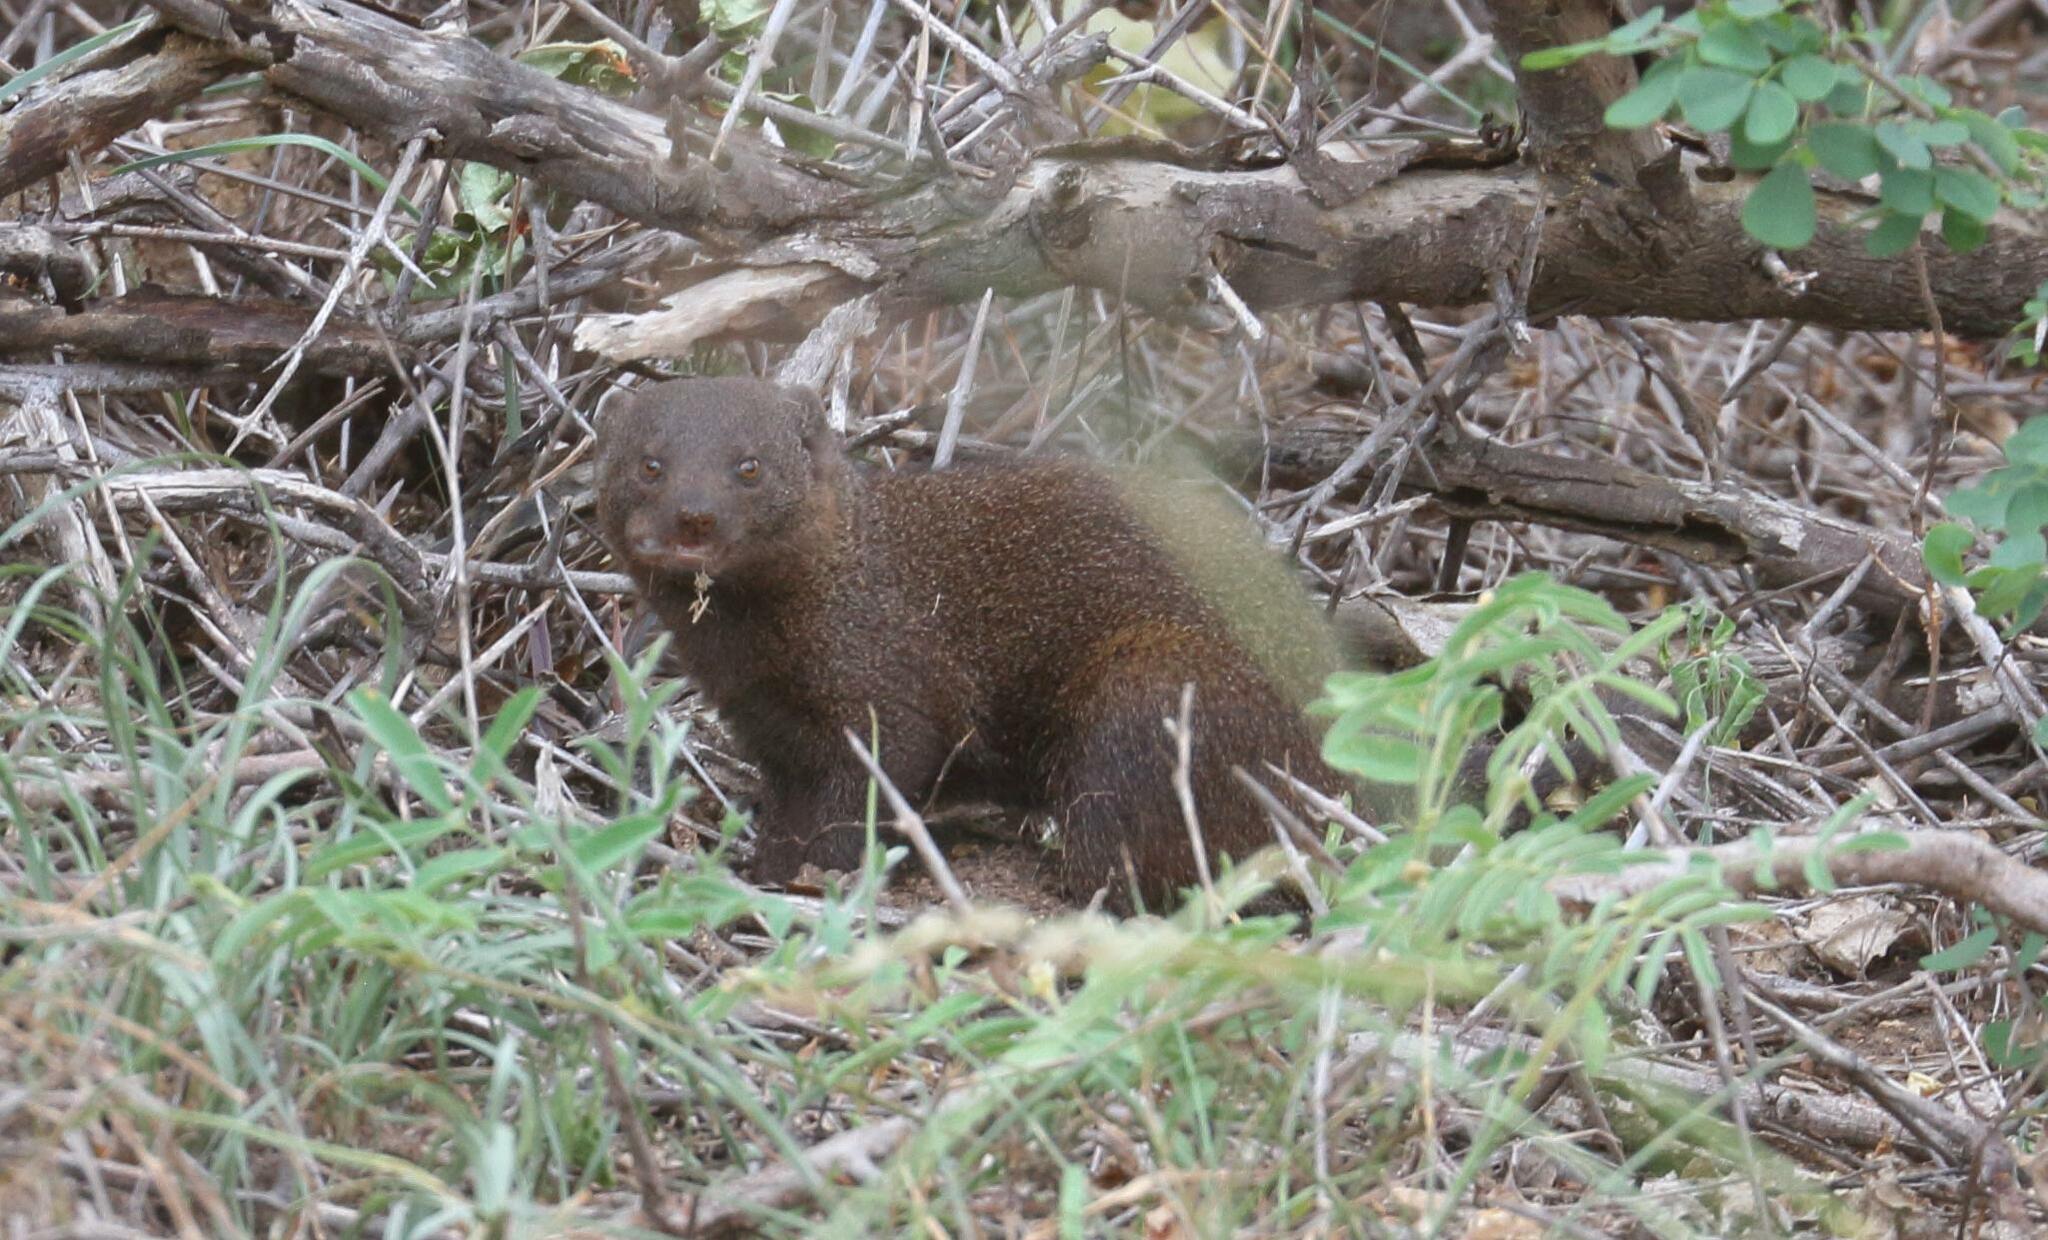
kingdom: Animalia
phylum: Chordata
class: Mammalia
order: Carnivora
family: Herpestidae
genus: Helogale
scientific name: Helogale parvula
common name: Common dwarf mongoose
